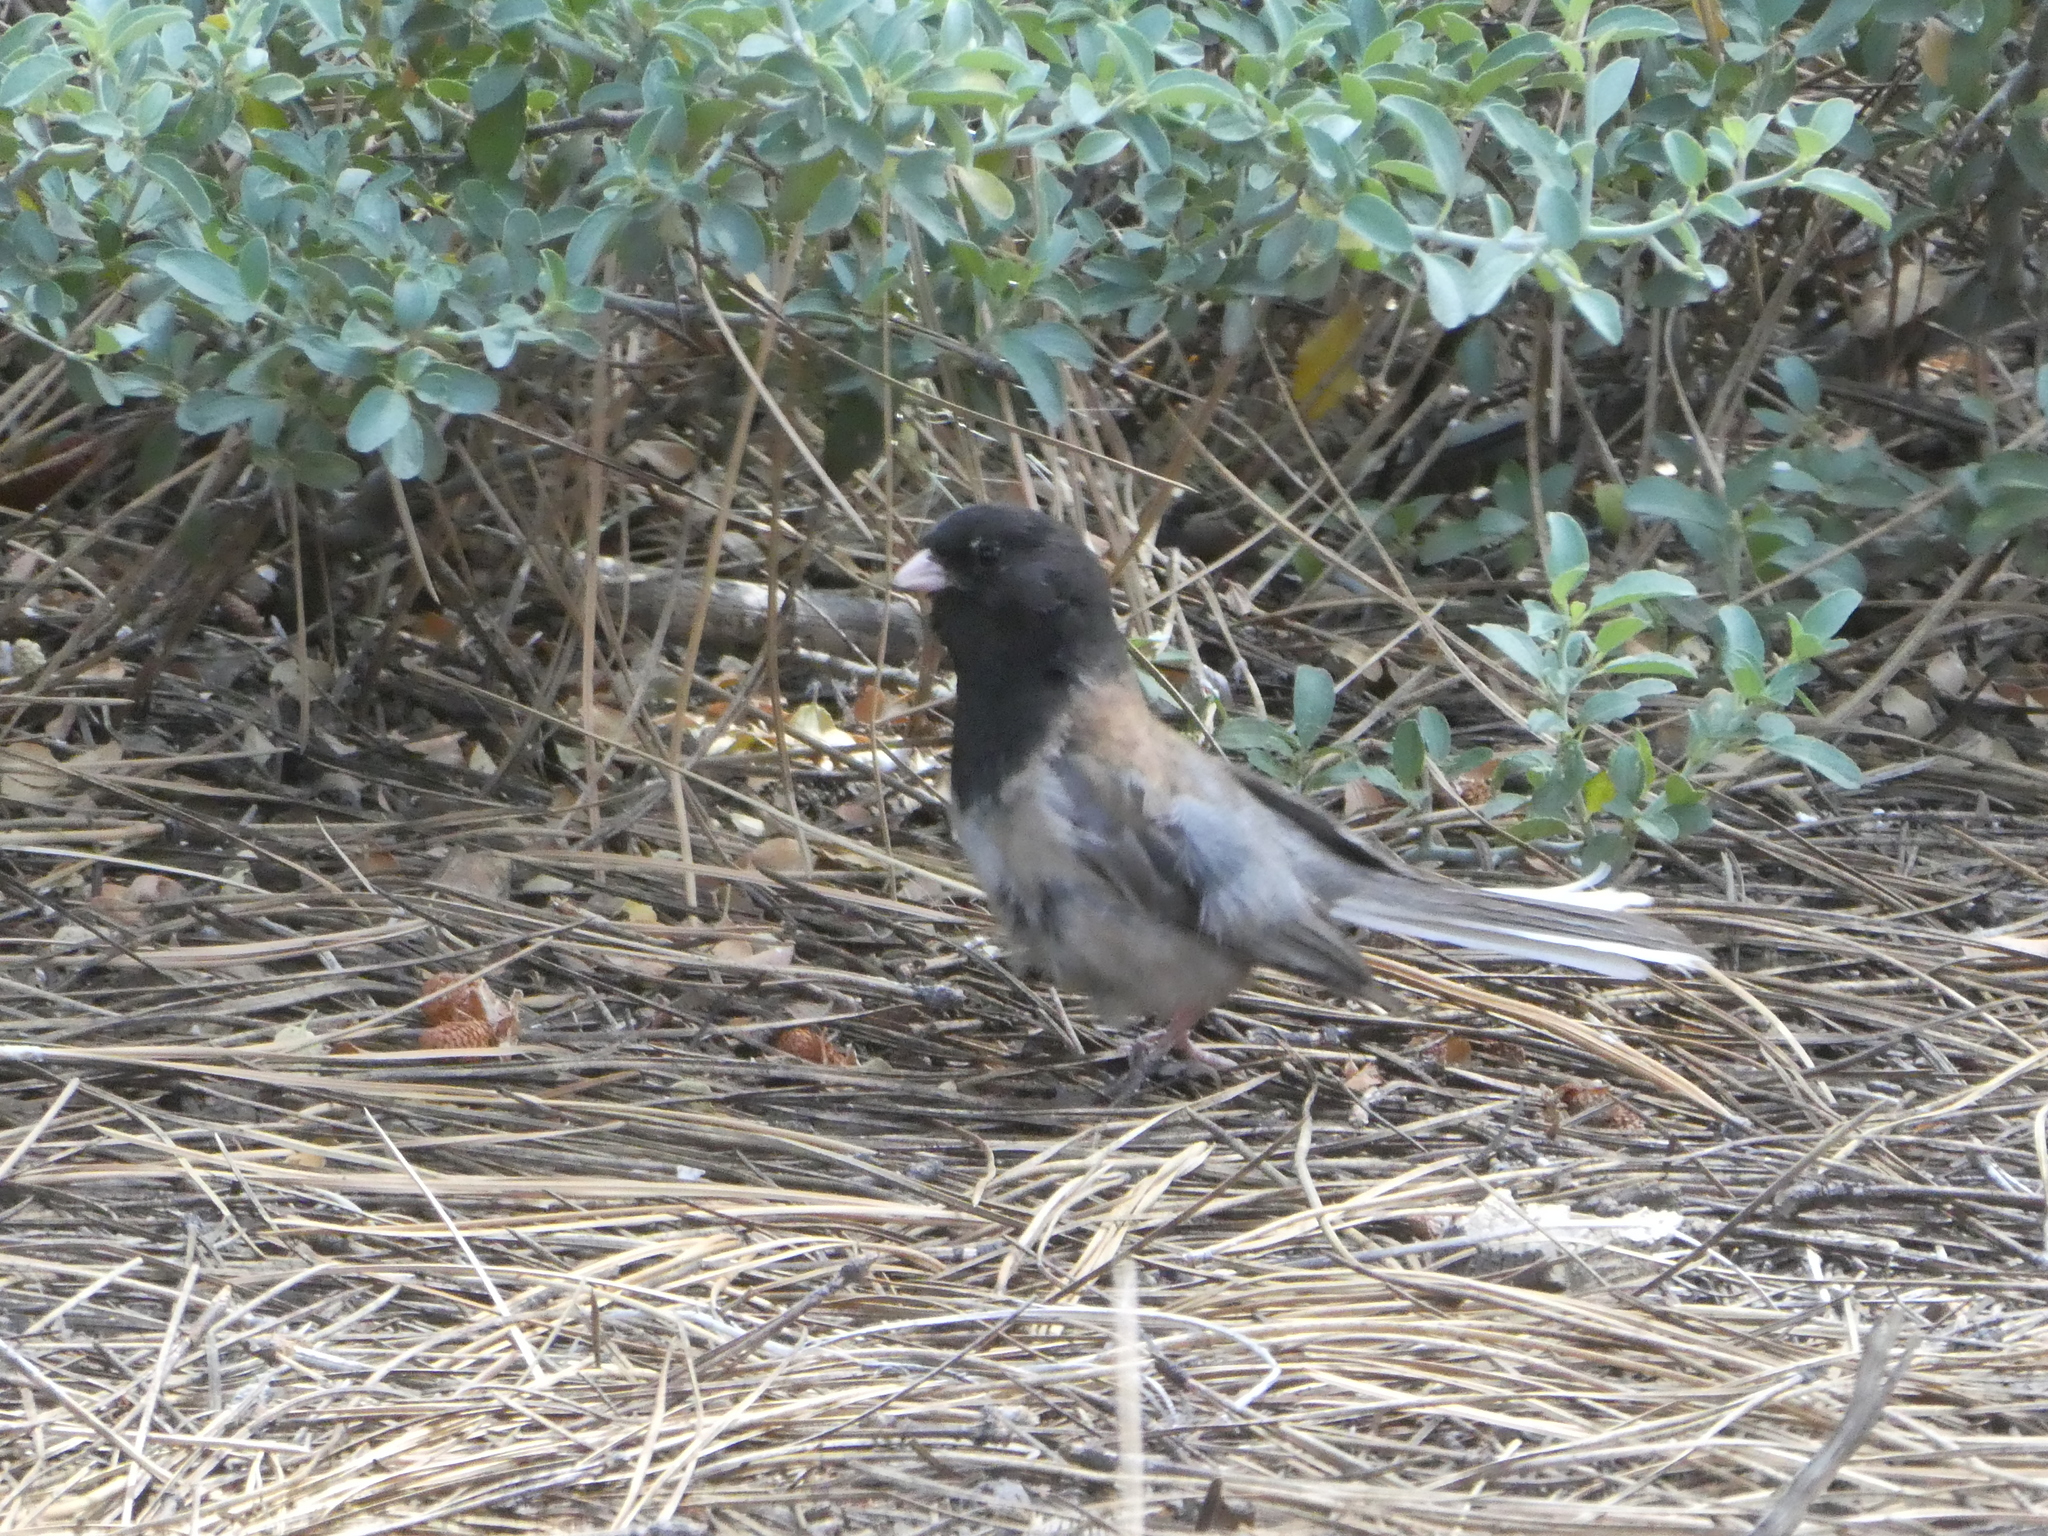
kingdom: Animalia
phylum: Chordata
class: Aves
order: Passeriformes
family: Passerellidae
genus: Junco
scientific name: Junco hyemalis
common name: Dark-eyed junco
